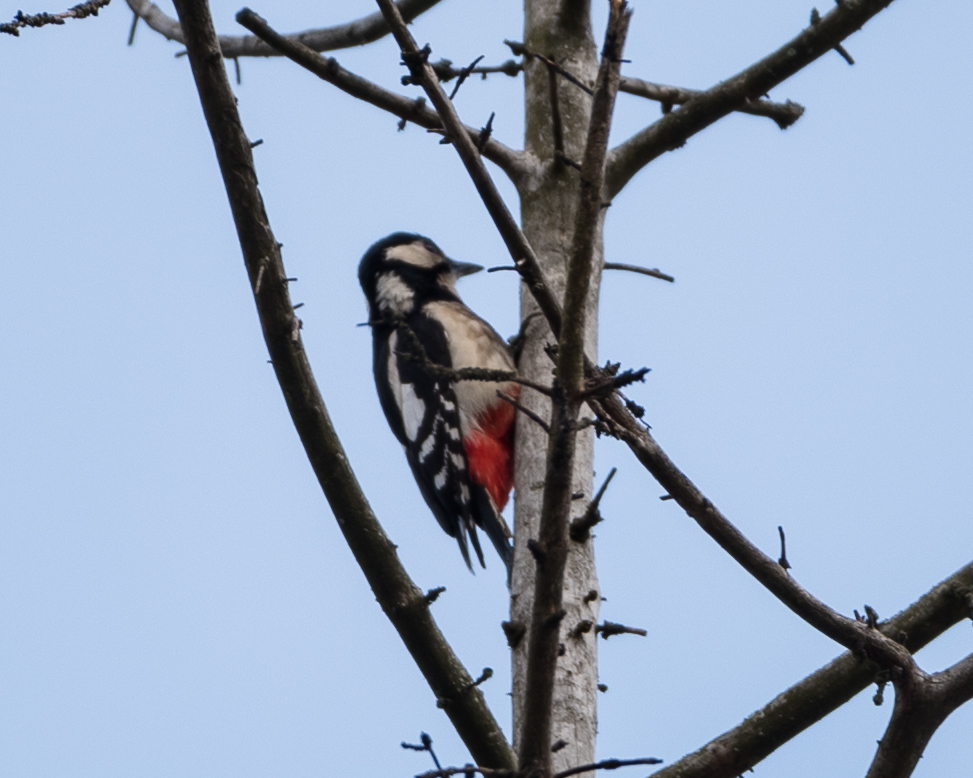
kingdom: Animalia
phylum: Chordata
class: Aves
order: Piciformes
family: Picidae
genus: Dendrocopos
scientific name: Dendrocopos major
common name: Great spotted woodpecker
